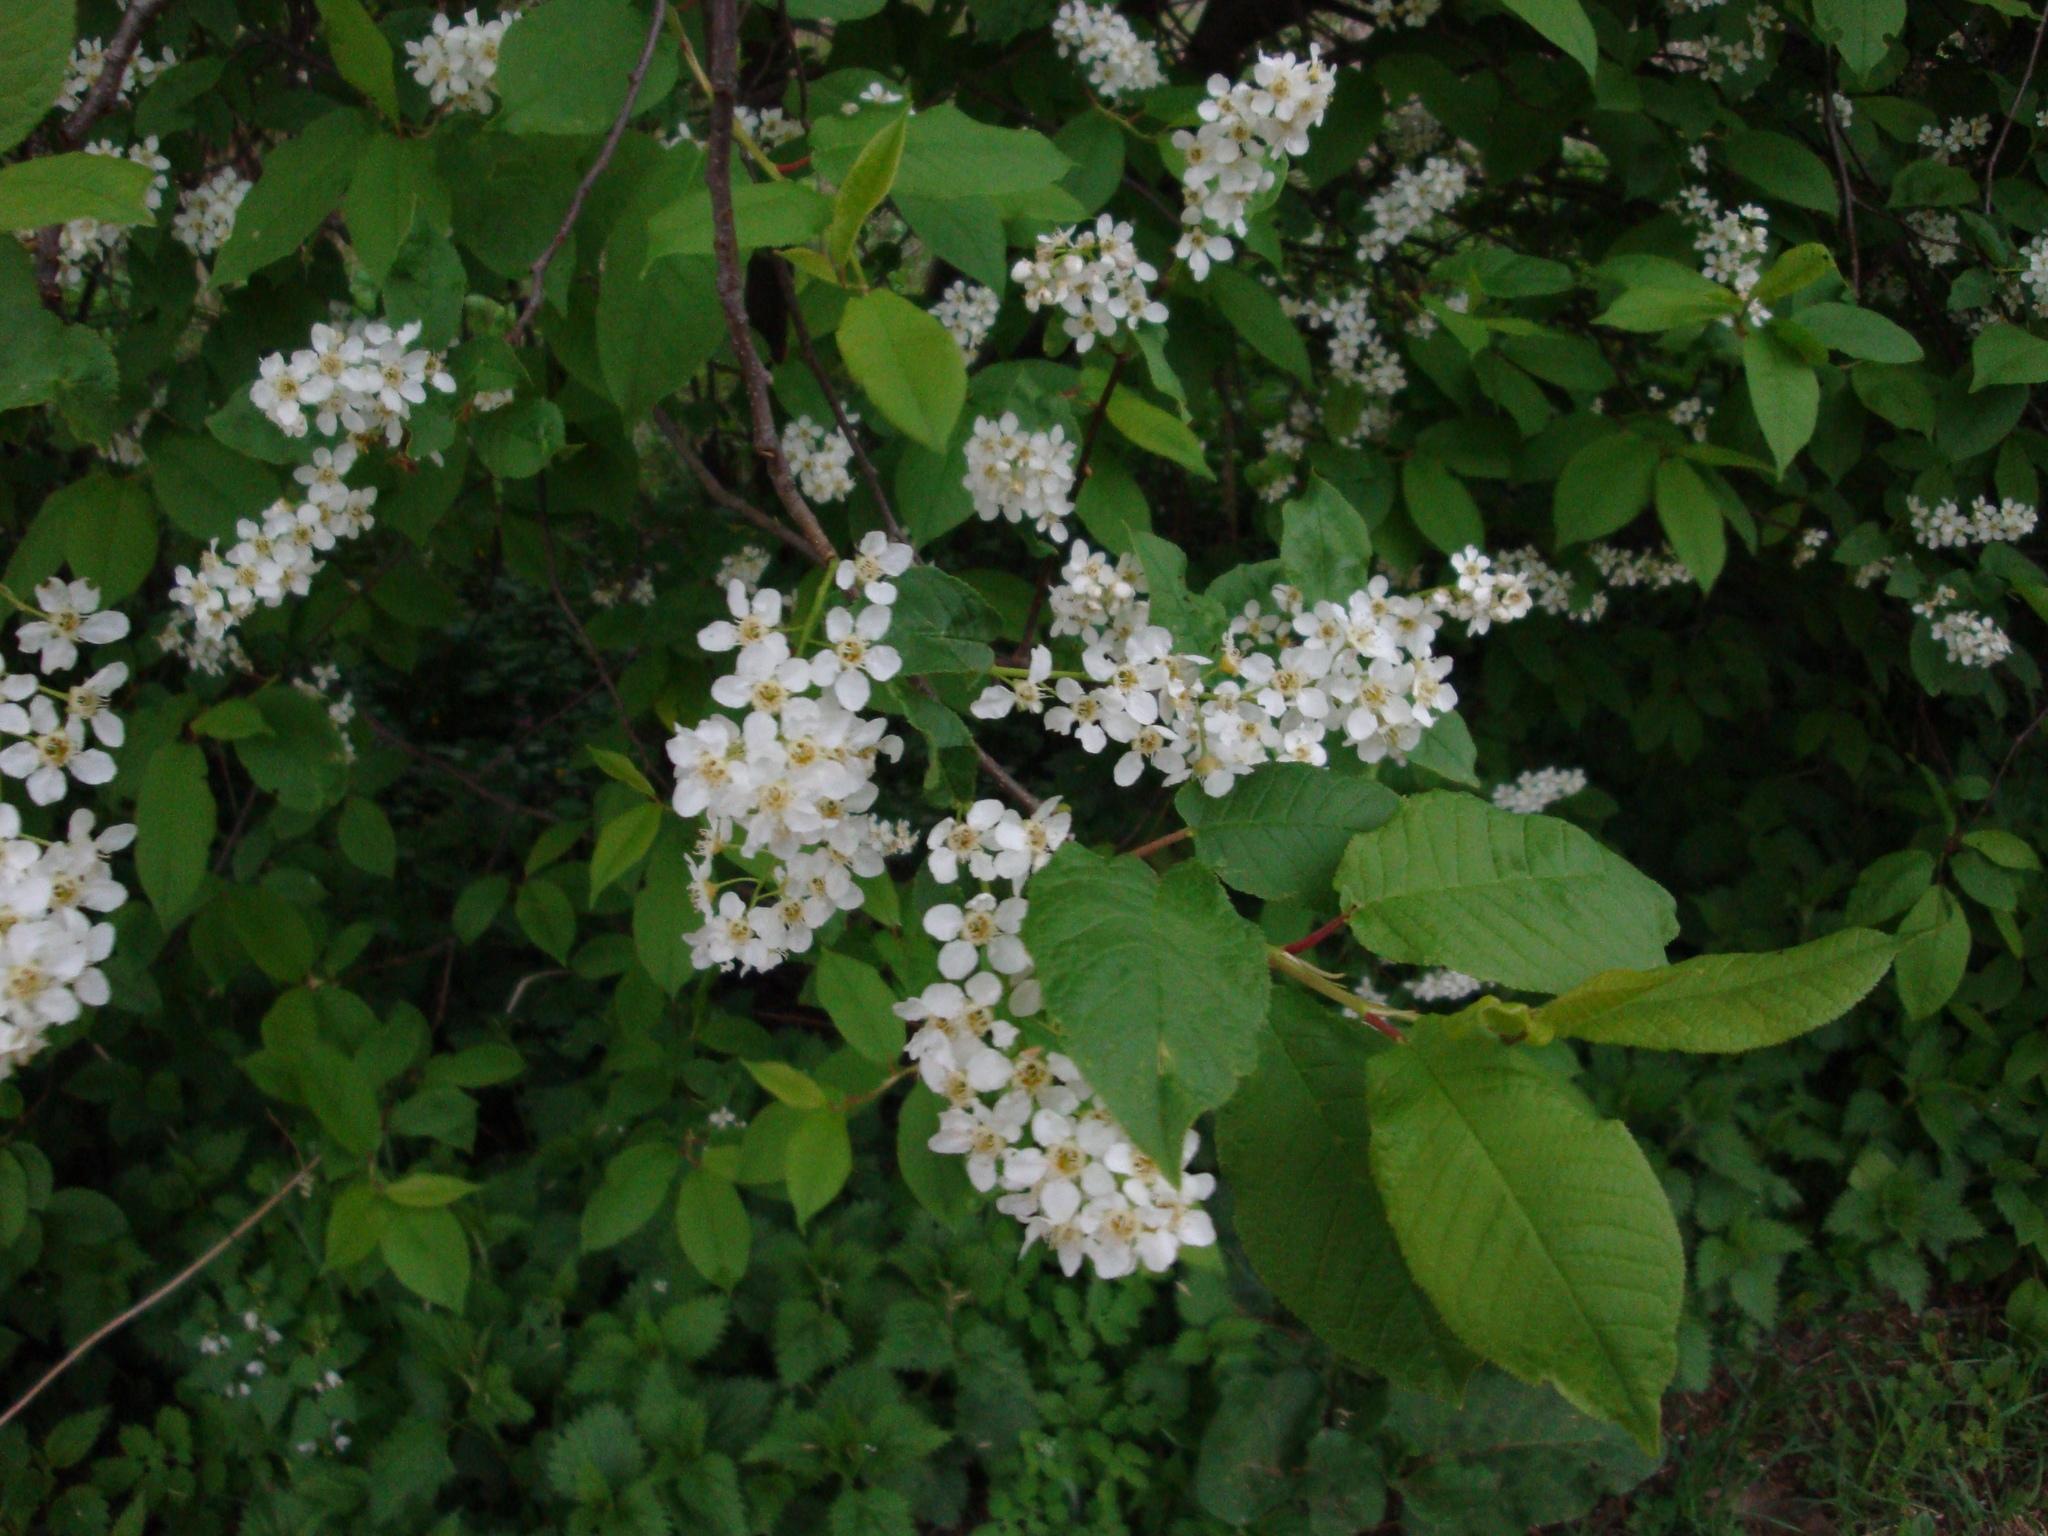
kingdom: Plantae
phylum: Tracheophyta
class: Magnoliopsida
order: Rosales
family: Rosaceae
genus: Prunus
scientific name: Prunus padus
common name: Bird cherry
